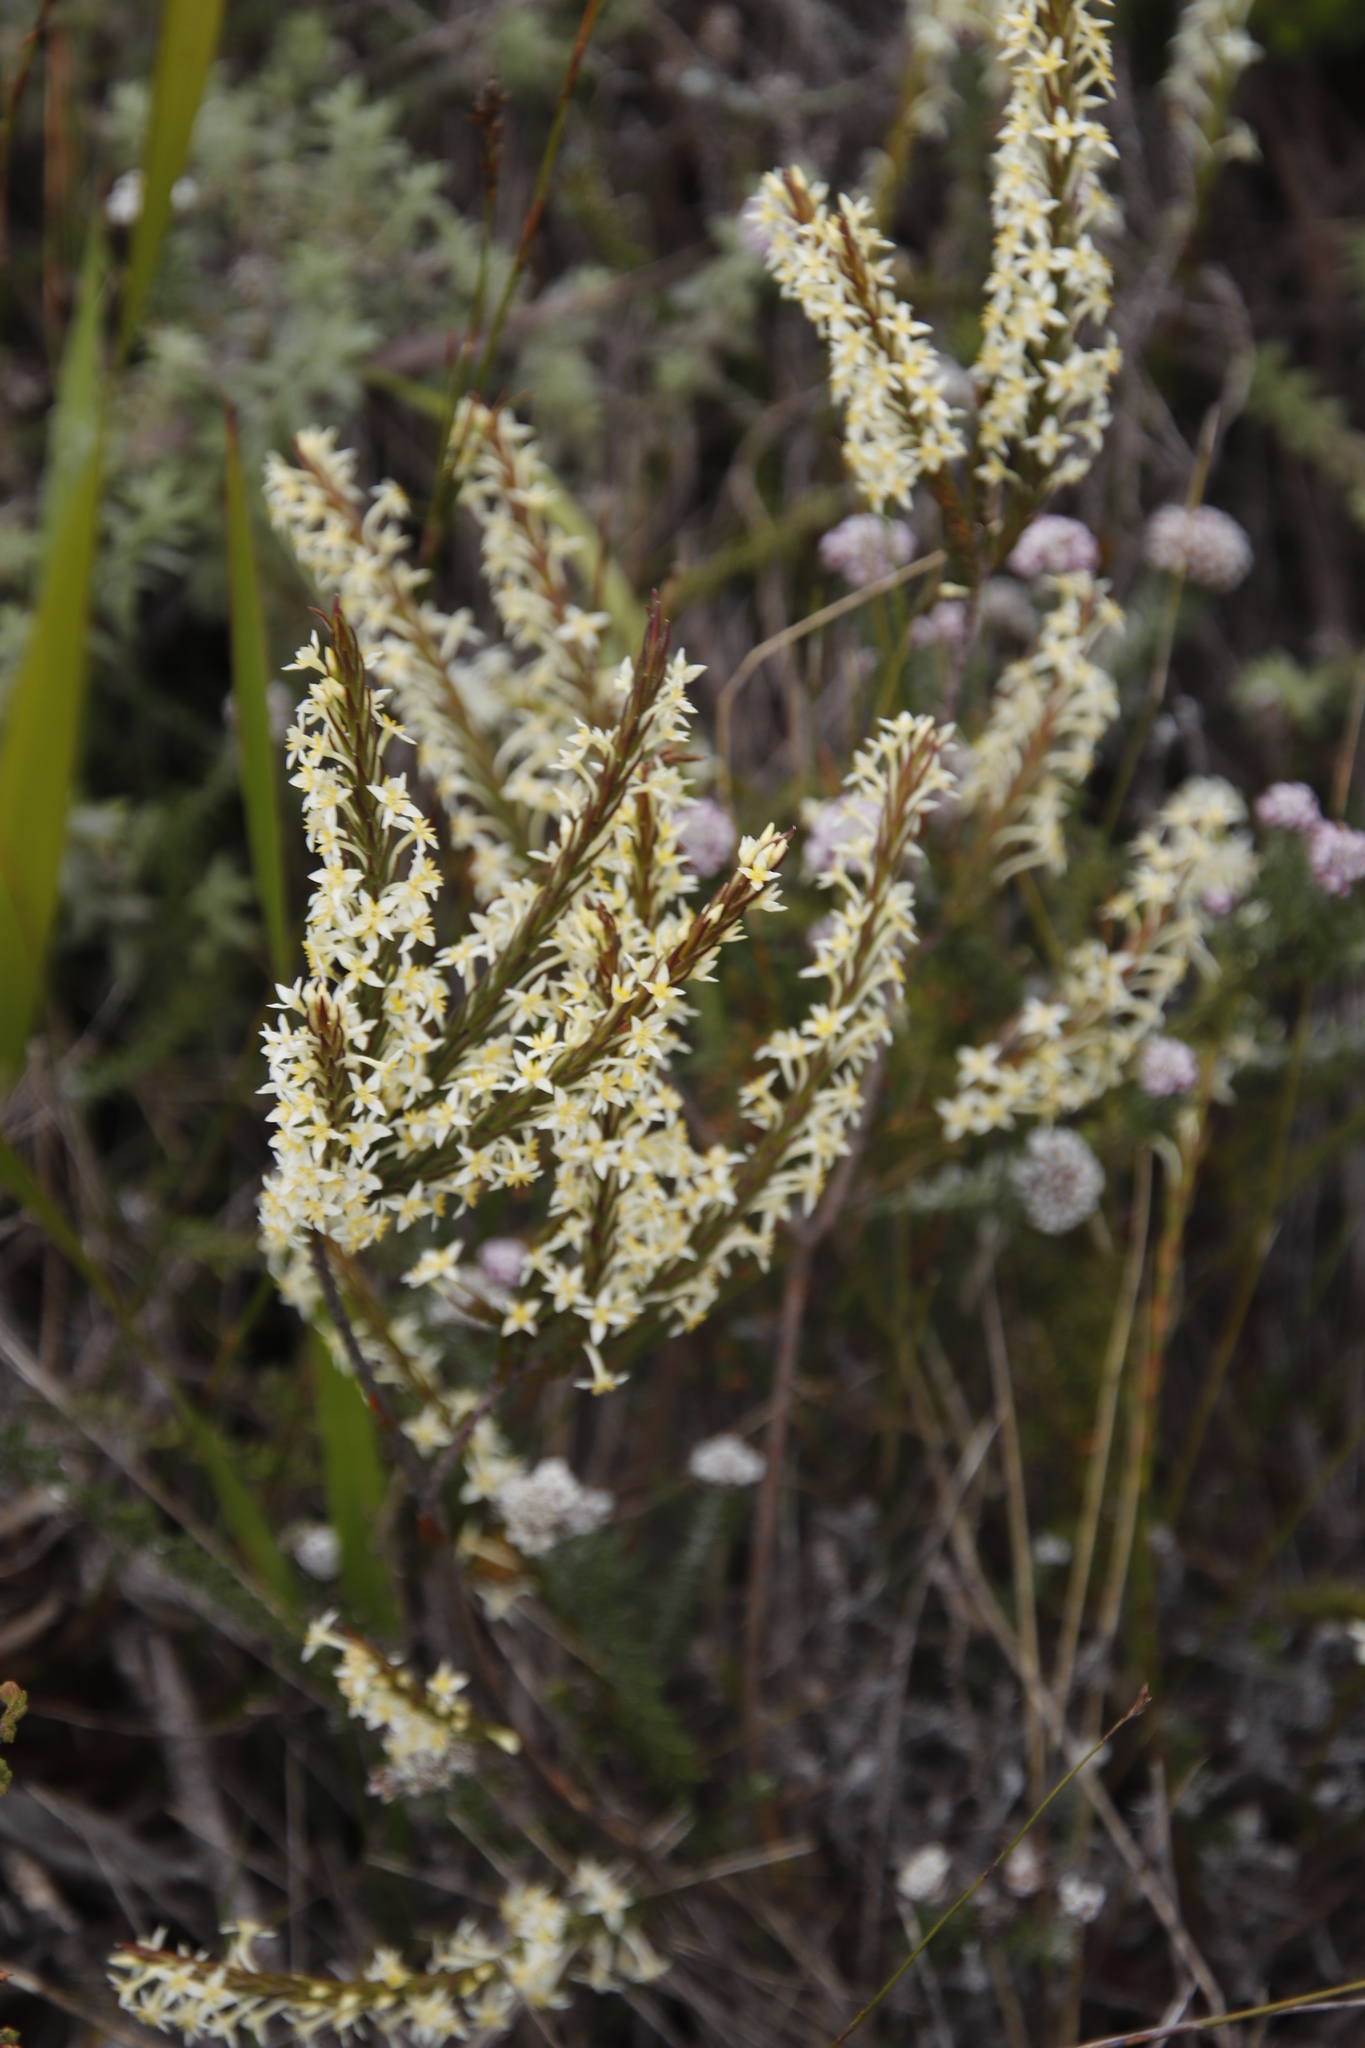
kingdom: Plantae
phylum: Tracheophyta
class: Magnoliopsida
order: Malvales
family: Thymelaeaceae
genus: Struthiola
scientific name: Struthiola ciliata
